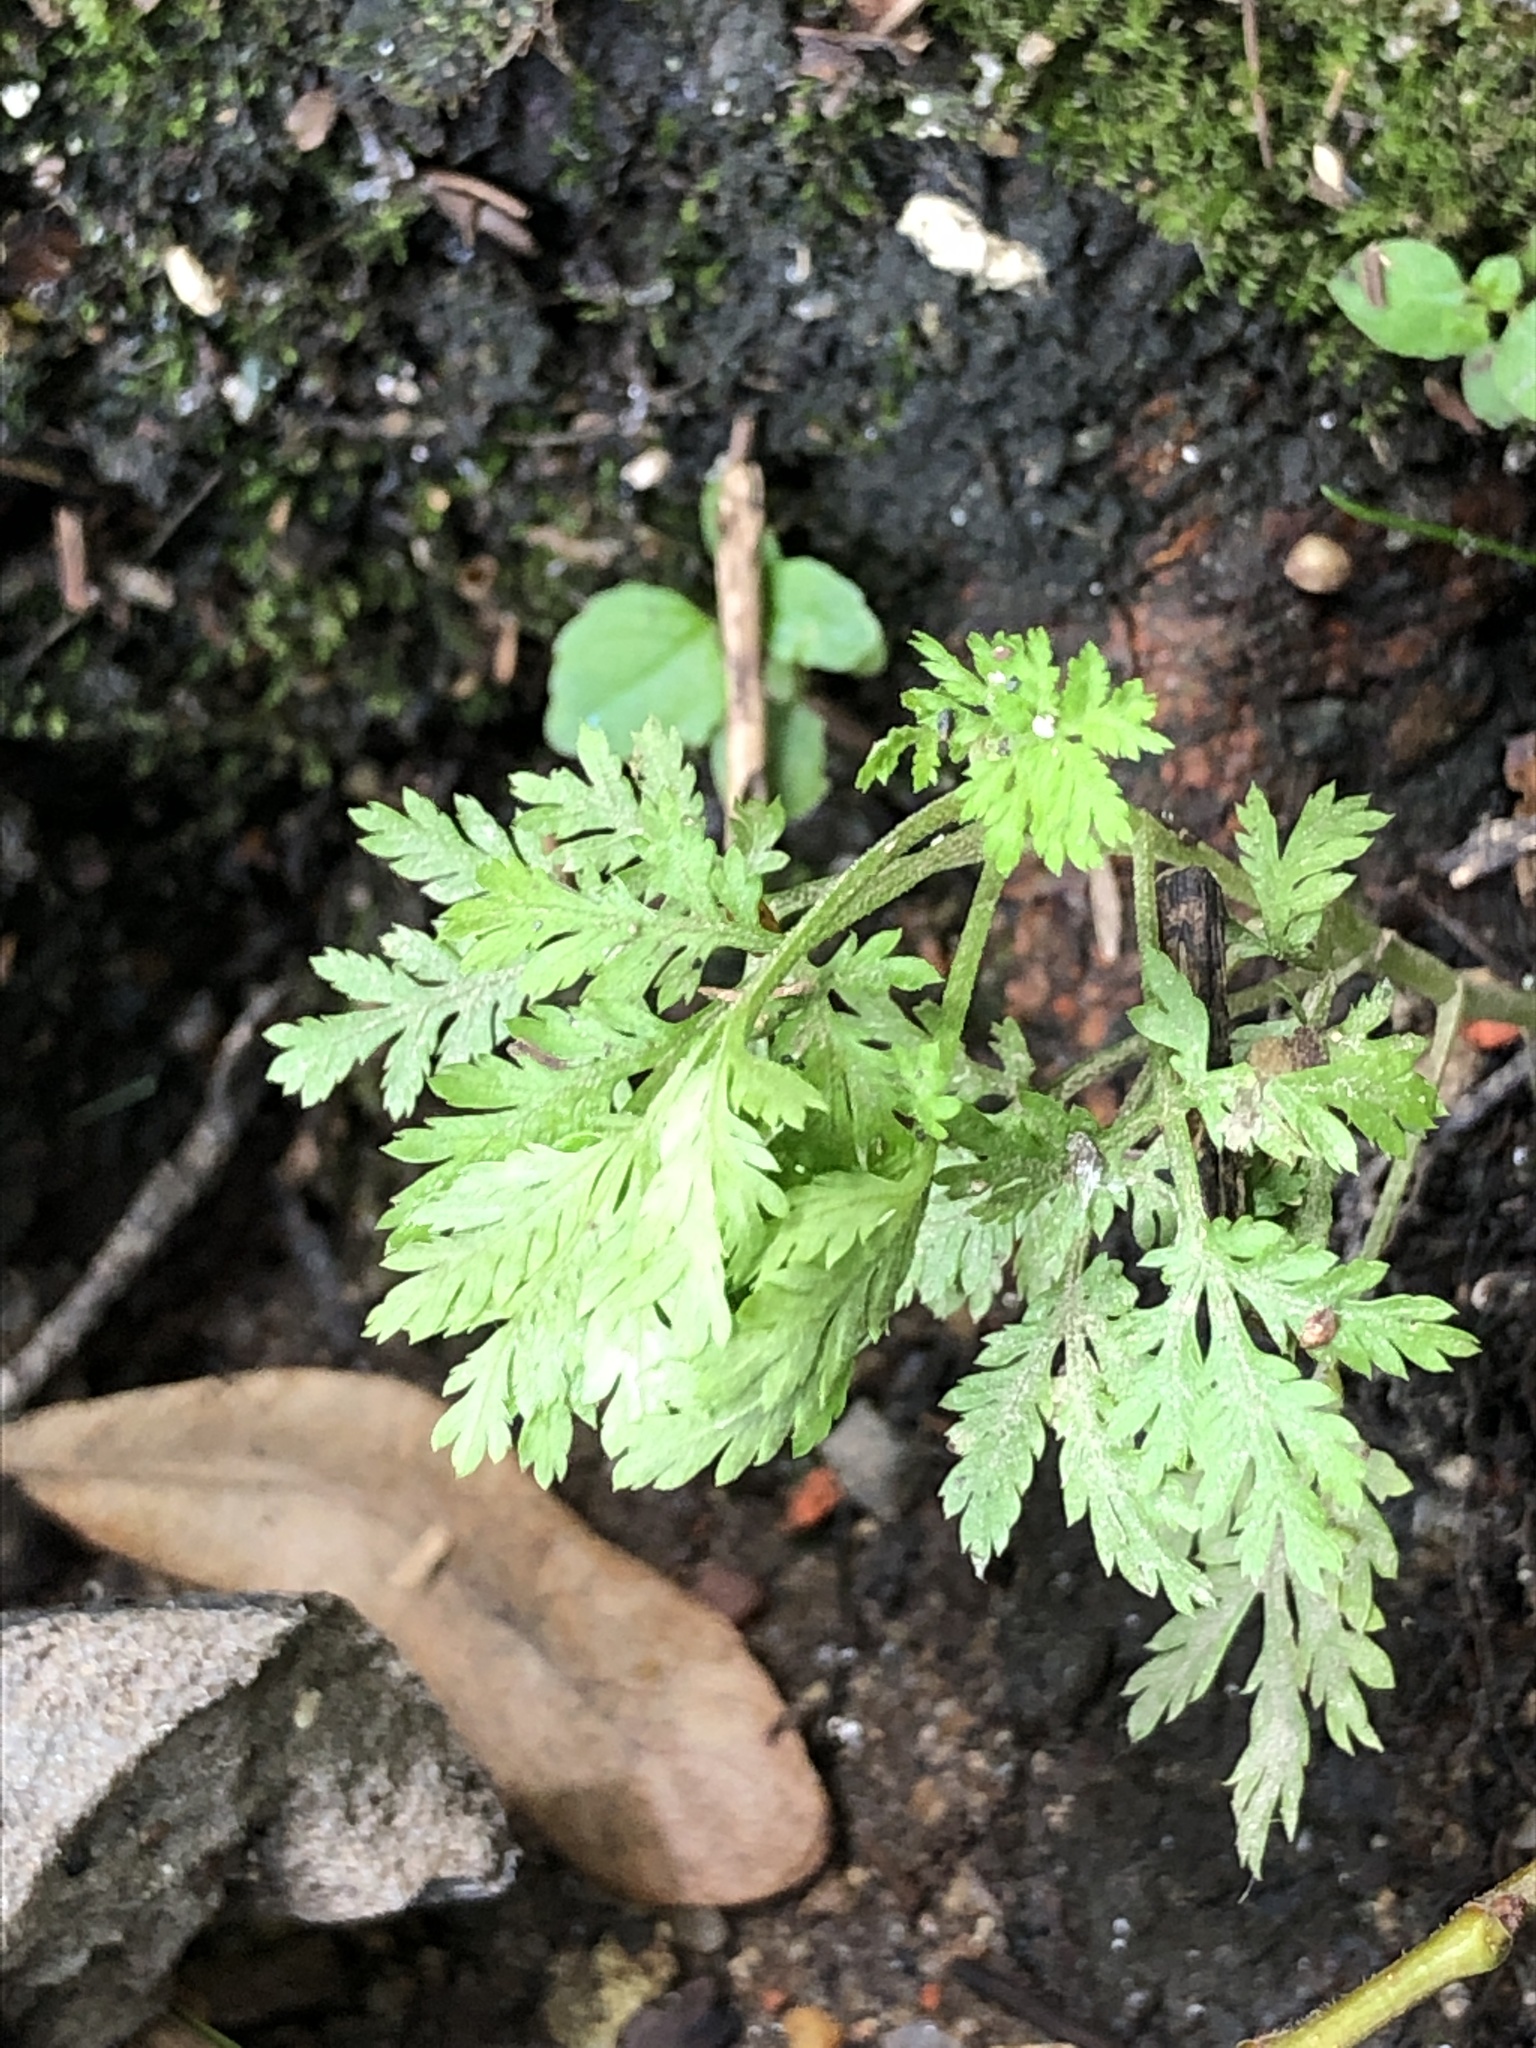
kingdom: Plantae
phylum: Tracheophyta
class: Magnoliopsida
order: Asterales
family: Asteraceae
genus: Artemisia
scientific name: Artemisia annua
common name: Sweet sagewort
